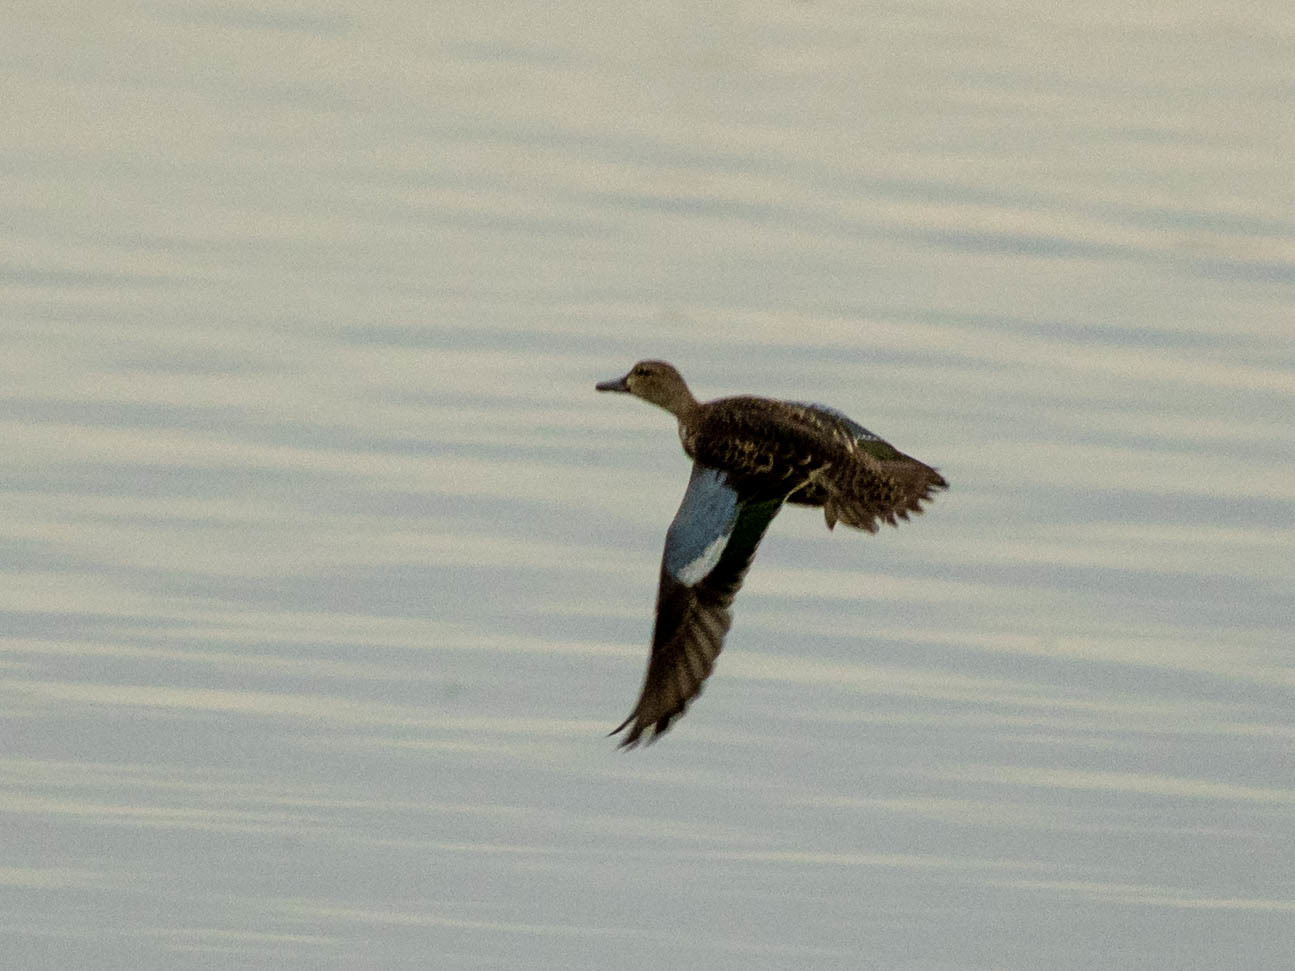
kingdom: Animalia
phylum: Chordata
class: Aves
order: Anseriformes
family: Anatidae
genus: Spatula
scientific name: Spatula discors
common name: Blue-winged teal
